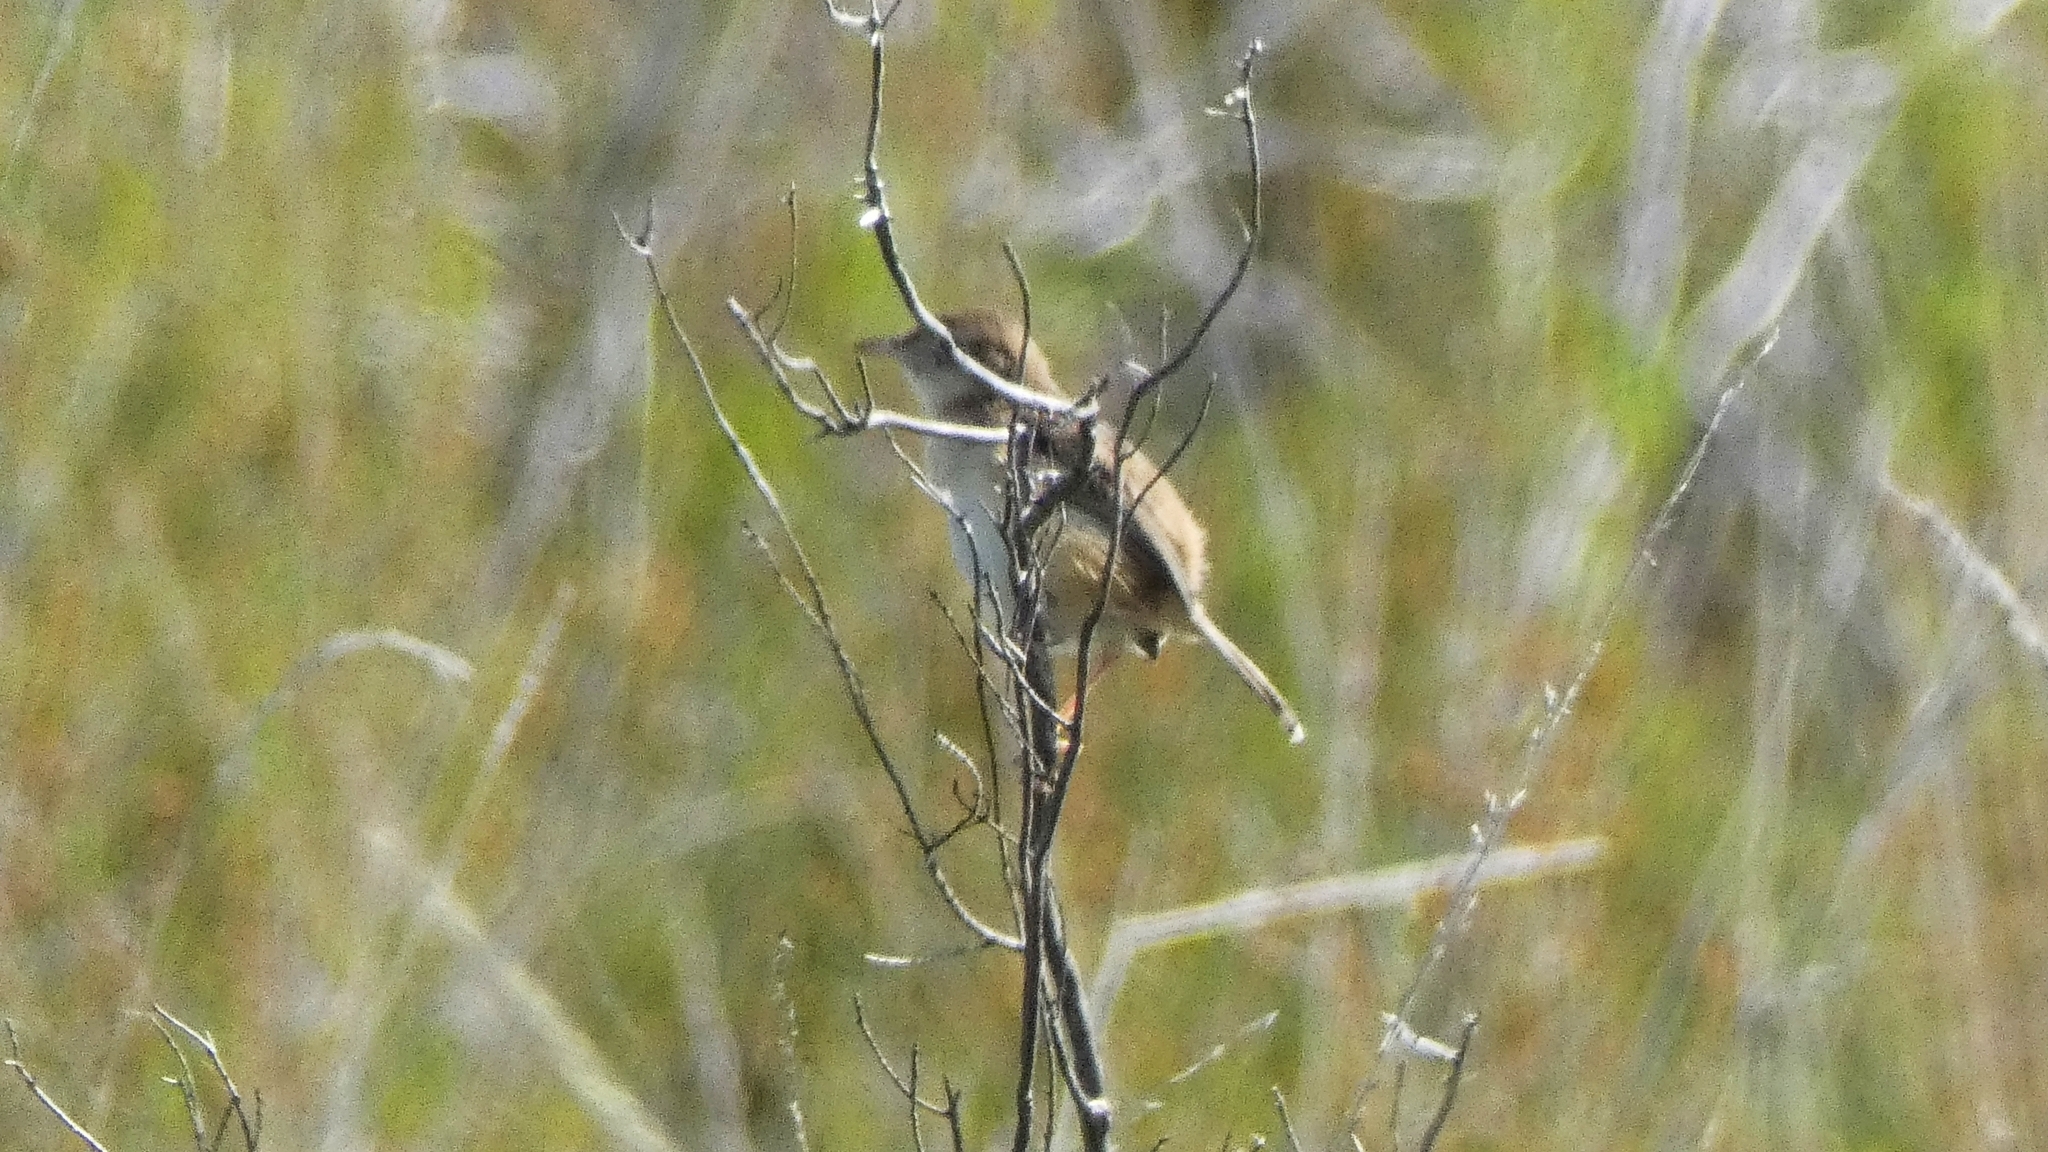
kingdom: Animalia
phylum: Chordata
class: Aves
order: Passeriformes
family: Cisticolidae
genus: Cisticola
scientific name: Cisticola juncidis
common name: Zitting cisticola
